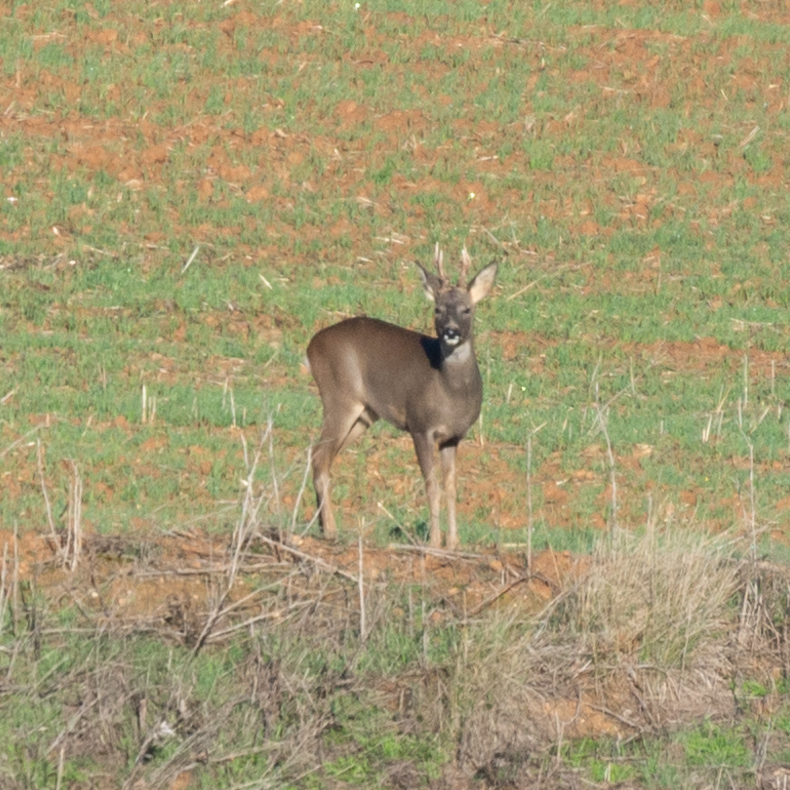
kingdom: Animalia
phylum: Chordata
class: Mammalia
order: Artiodactyla
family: Cervidae
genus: Capreolus
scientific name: Capreolus capreolus
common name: Western roe deer
